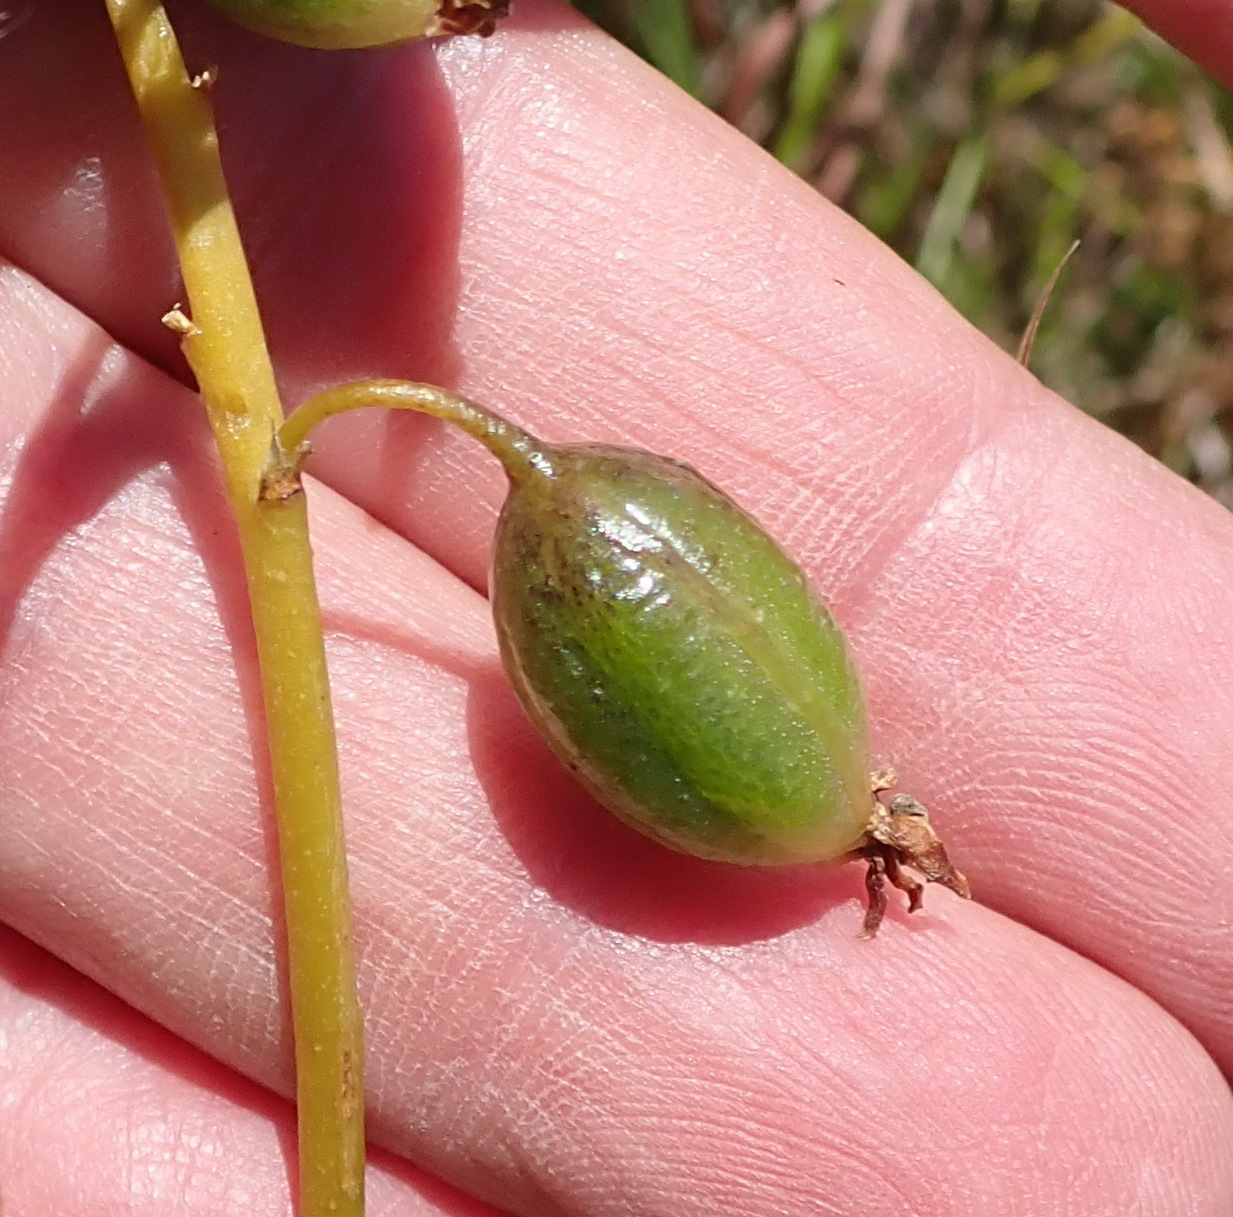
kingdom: Plantae
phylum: Tracheophyta
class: Liliopsida
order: Asparagales
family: Orchidaceae
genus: Eulophia
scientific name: Eulophia cochlearis
